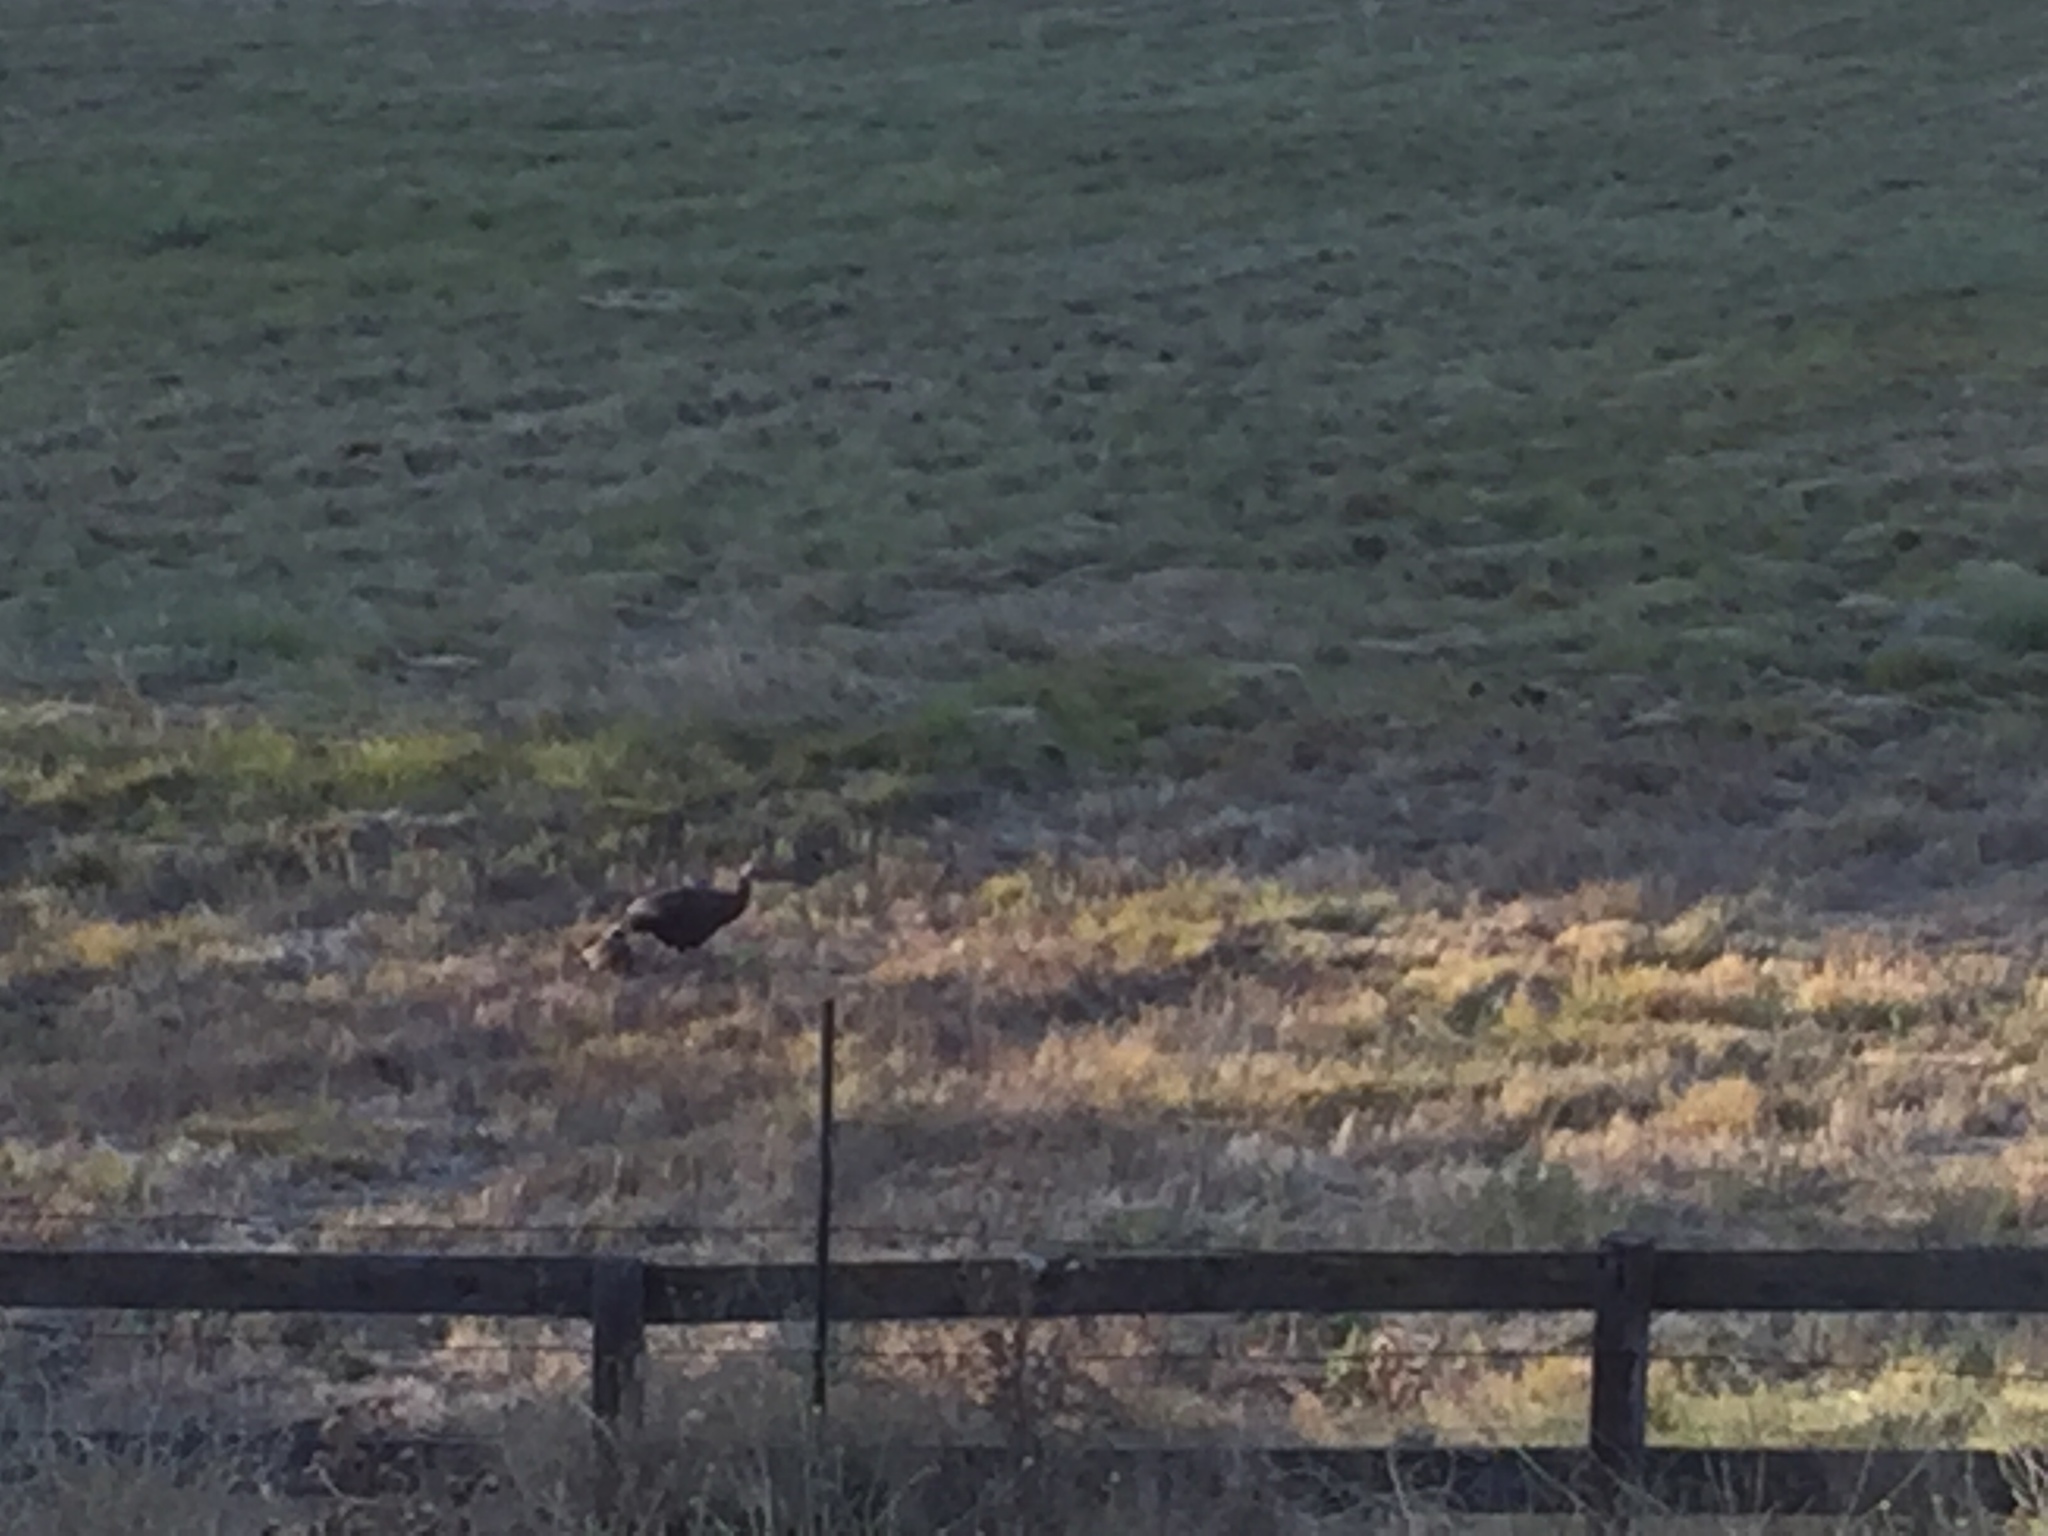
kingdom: Animalia
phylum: Chordata
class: Aves
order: Galliformes
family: Phasianidae
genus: Meleagris
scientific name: Meleagris gallopavo
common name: Wild turkey
